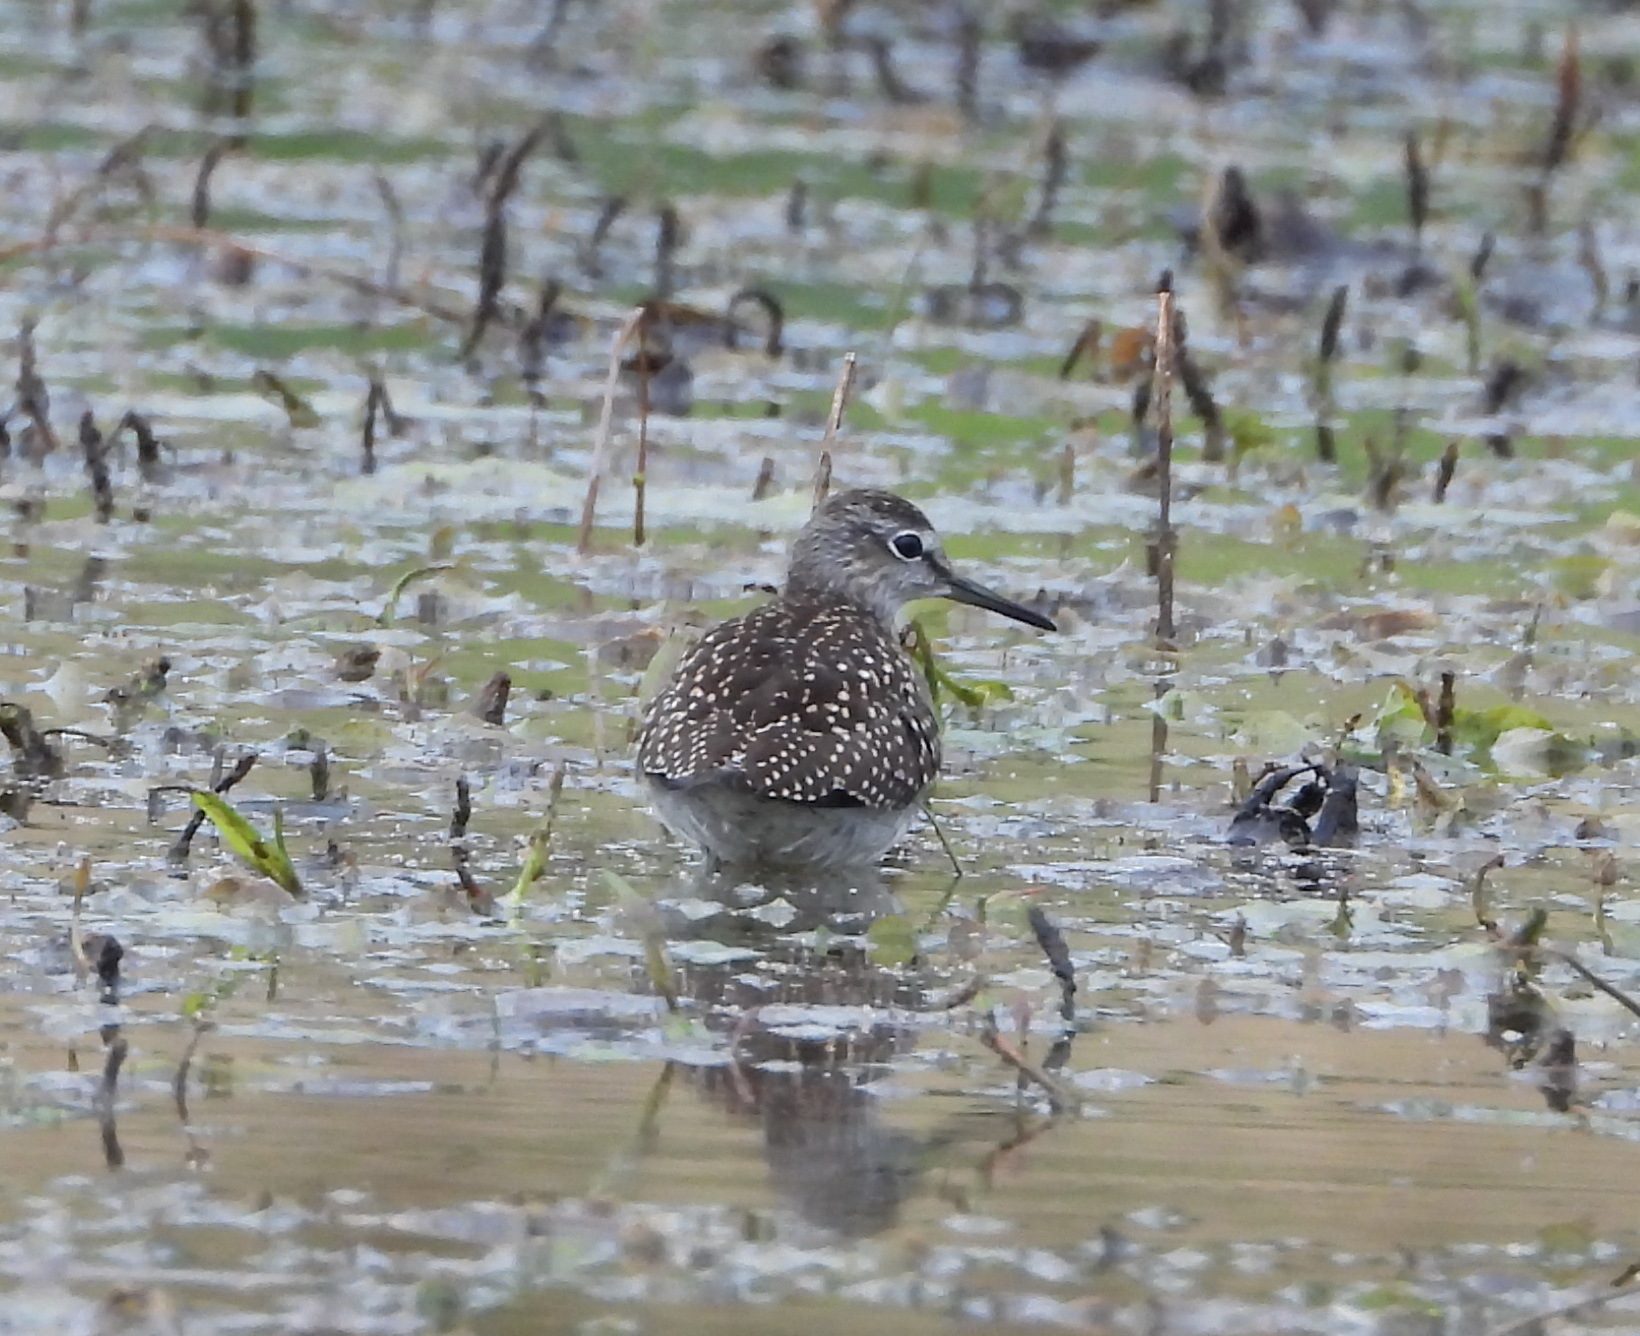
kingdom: Animalia
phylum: Chordata
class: Aves
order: Charadriiformes
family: Scolopacidae
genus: Tringa
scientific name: Tringa glareola
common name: Wood sandpiper
